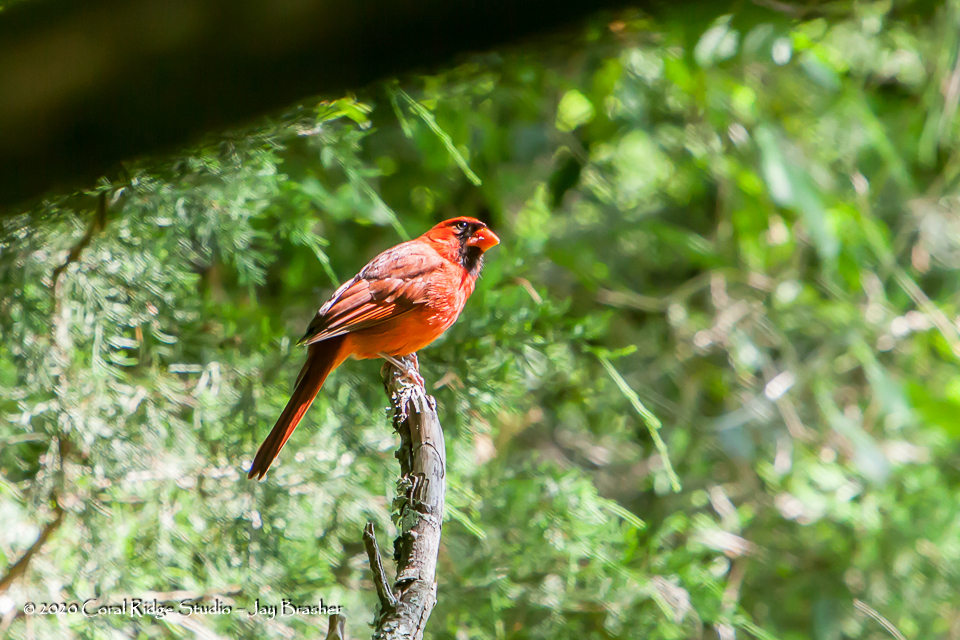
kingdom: Animalia
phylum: Chordata
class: Aves
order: Passeriformes
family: Cardinalidae
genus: Cardinalis
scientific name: Cardinalis cardinalis
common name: Northern cardinal
